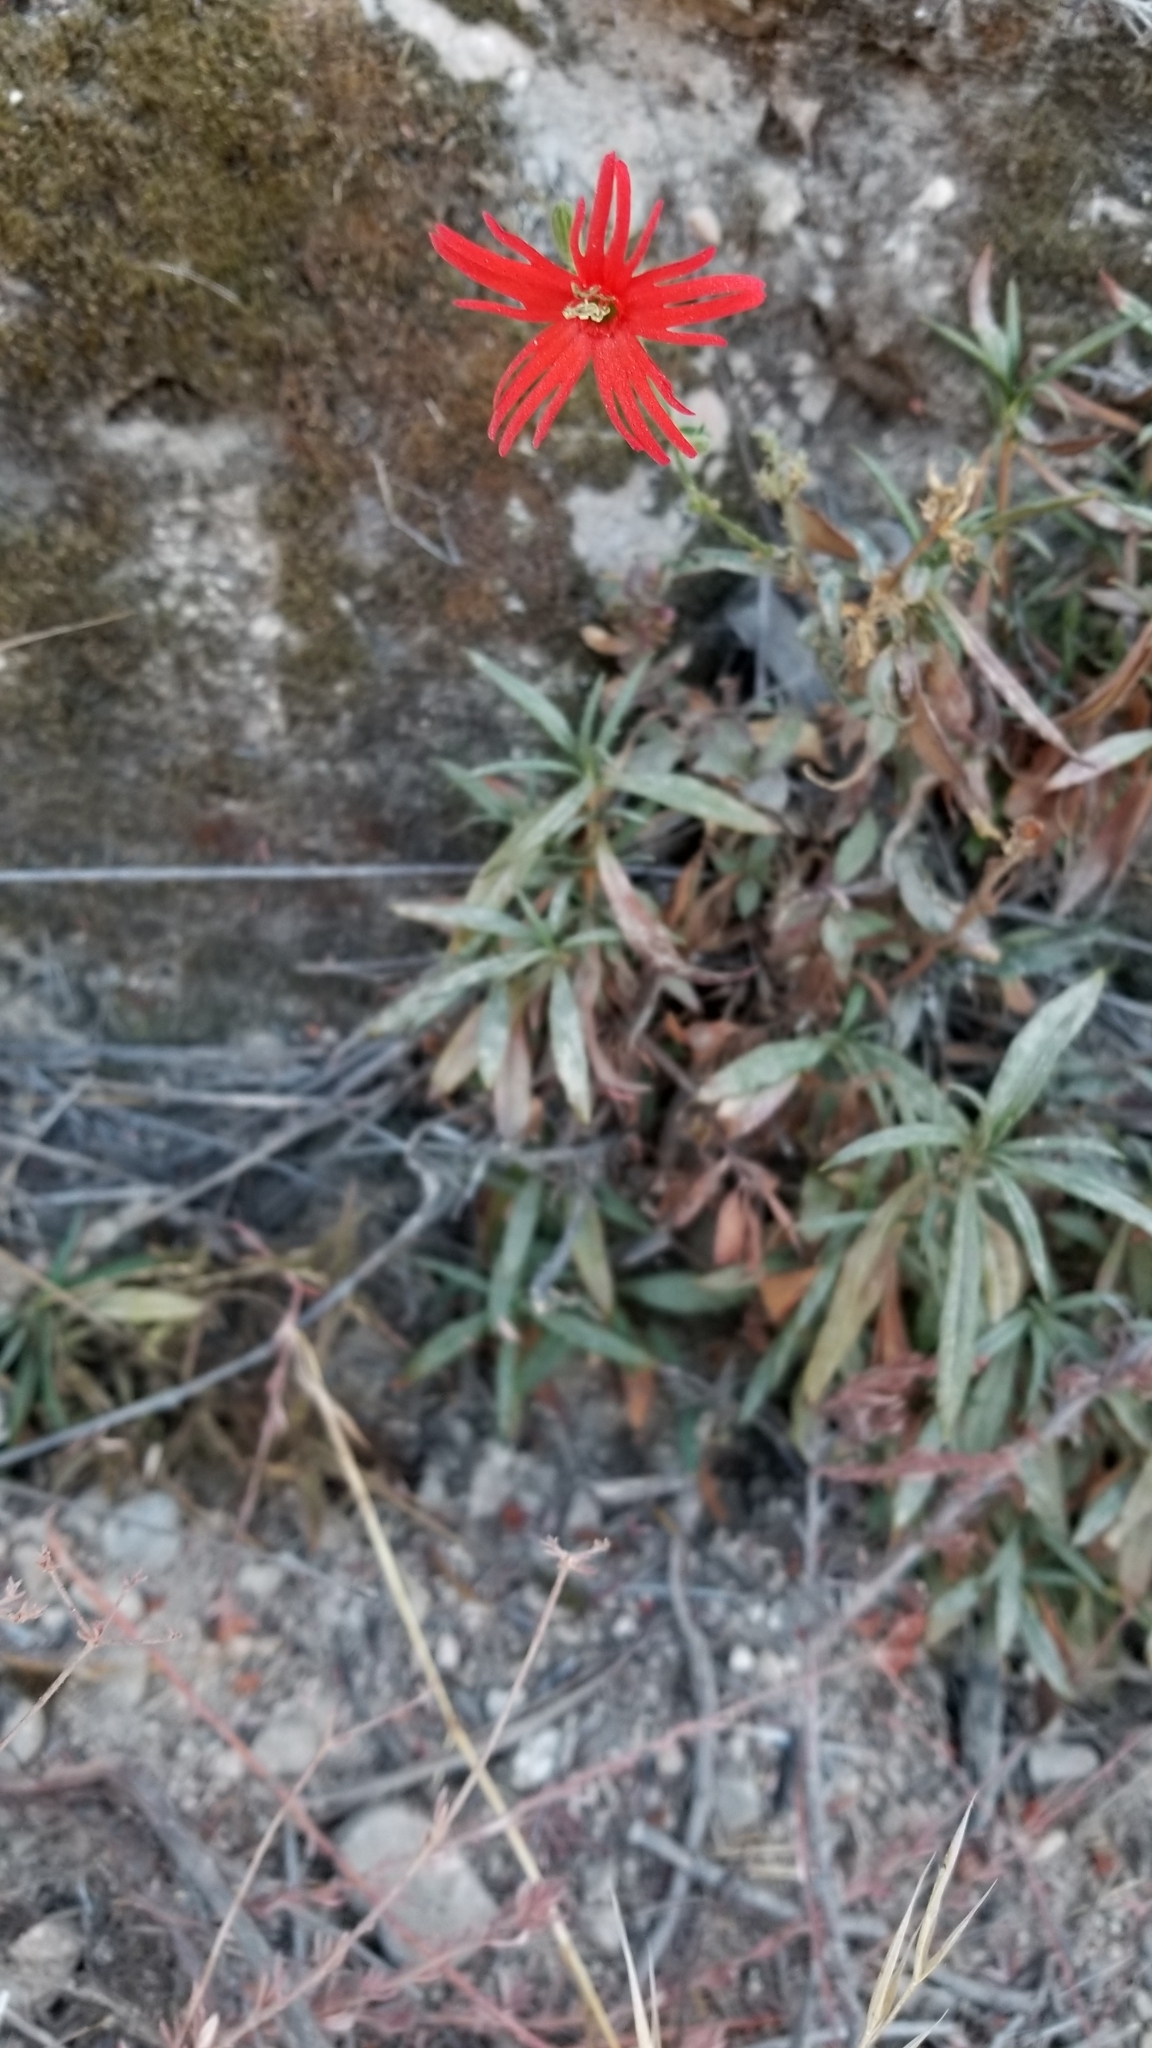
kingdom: Plantae
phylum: Tracheophyta
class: Magnoliopsida
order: Caryophyllales
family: Caryophyllaceae
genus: Silene
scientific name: Silene laciniata
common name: Indian-pink
